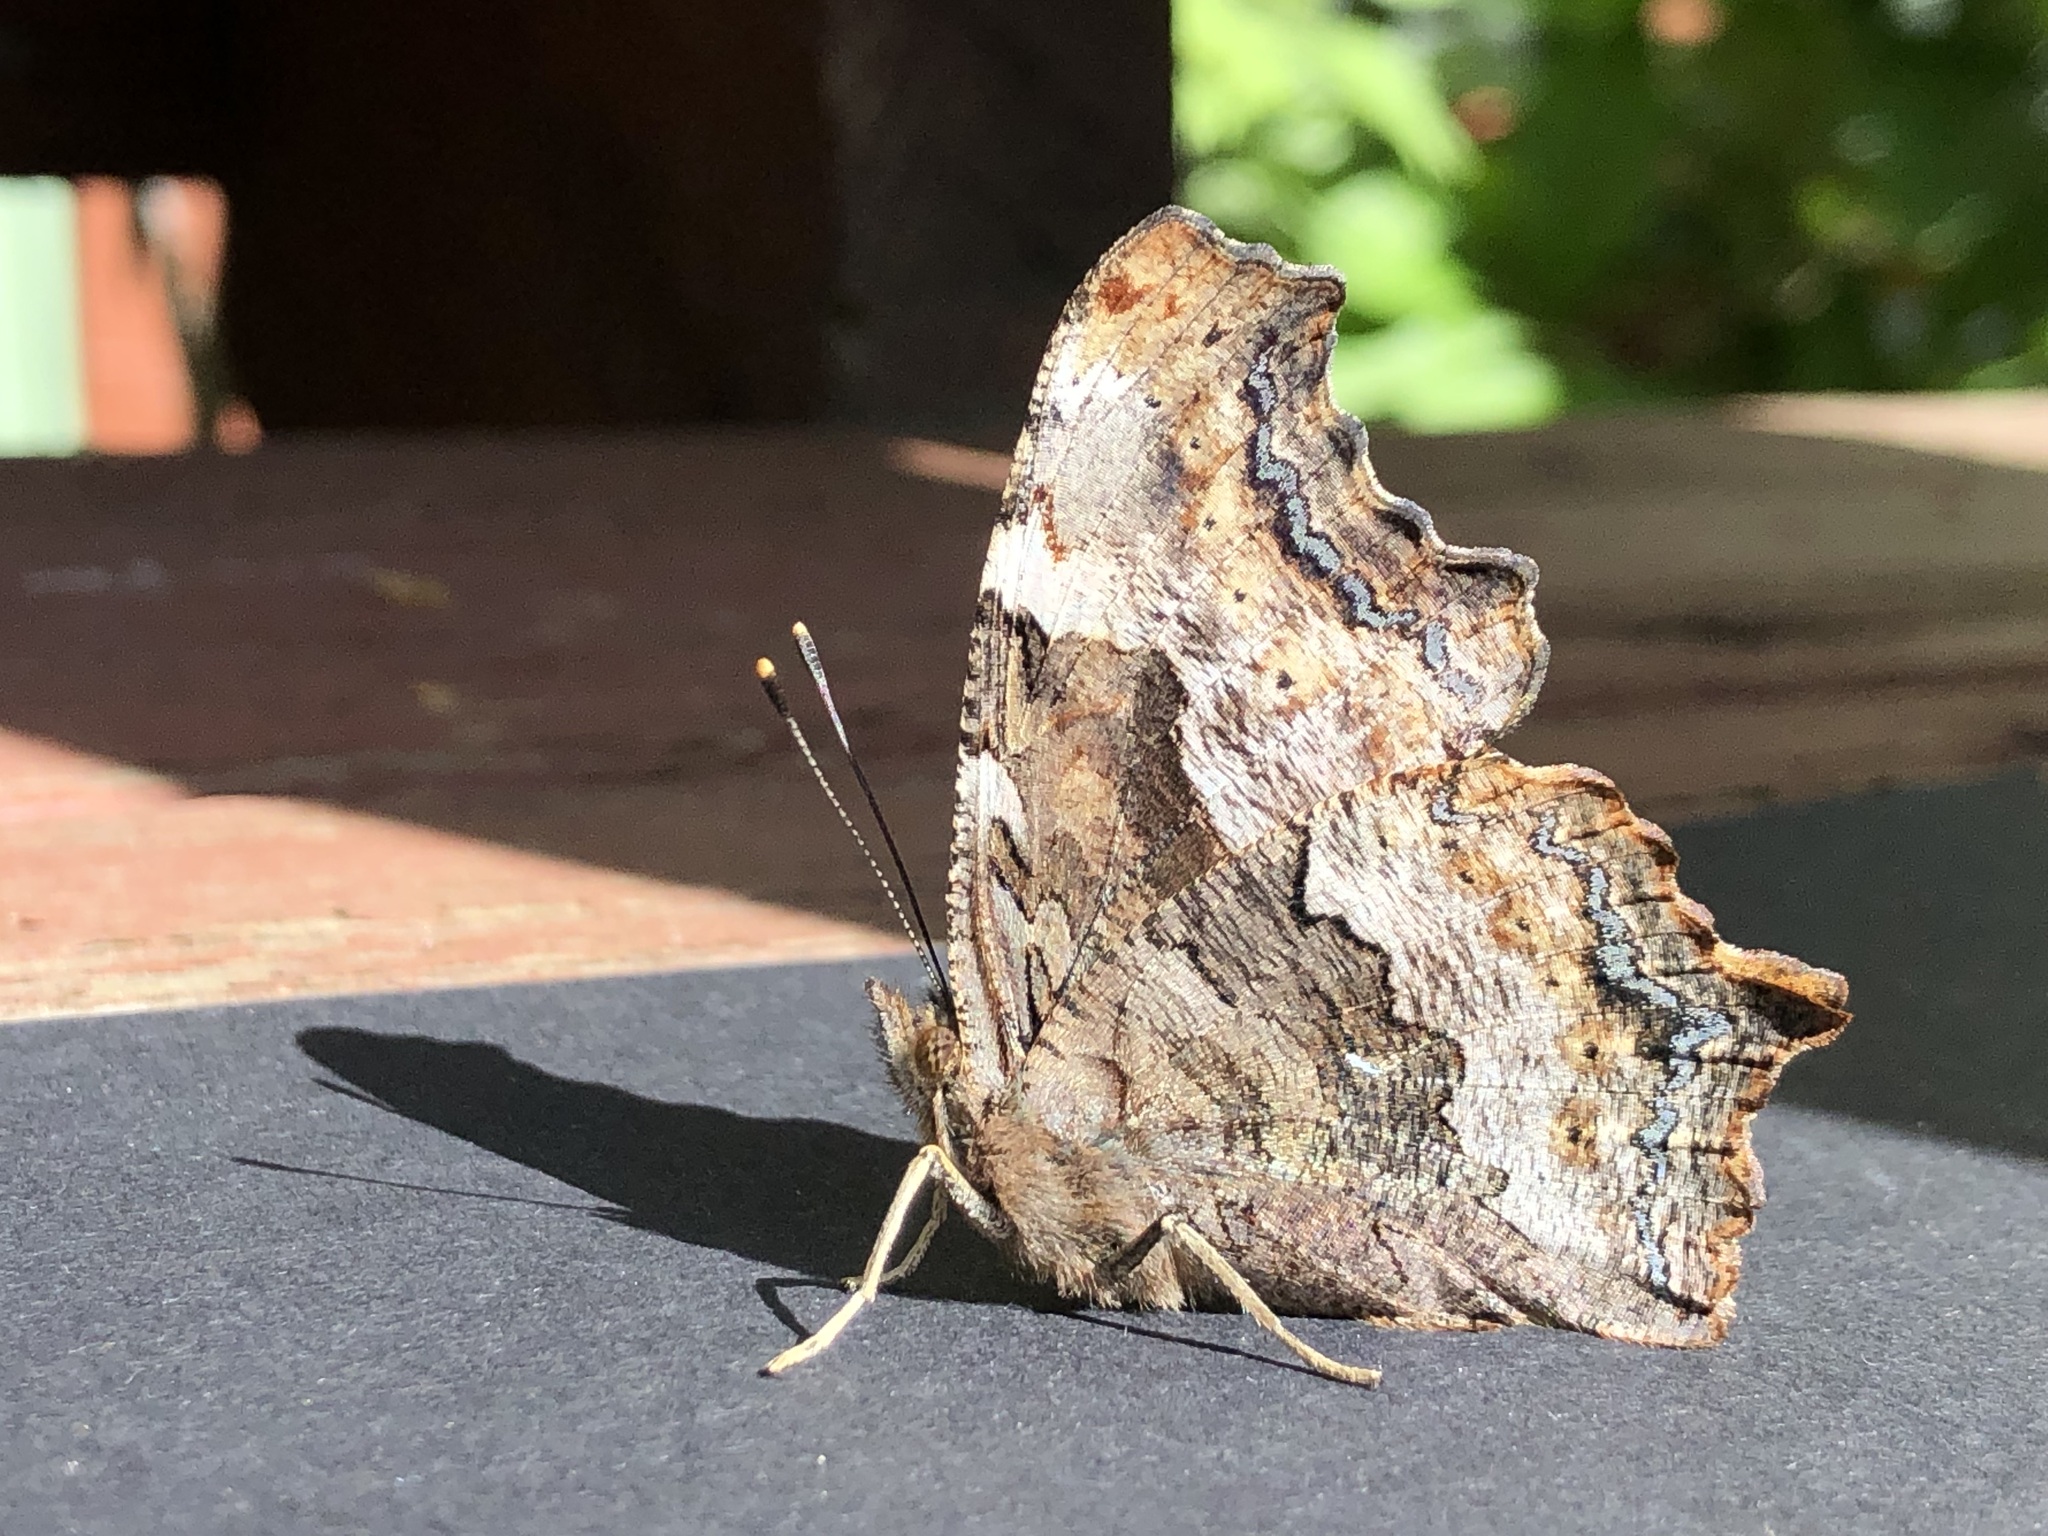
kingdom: Animalia
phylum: Arthropoda
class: Insecta
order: Lepidoptera
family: Nymphalidae
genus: Polygonia
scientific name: Polygonia vaualbum
